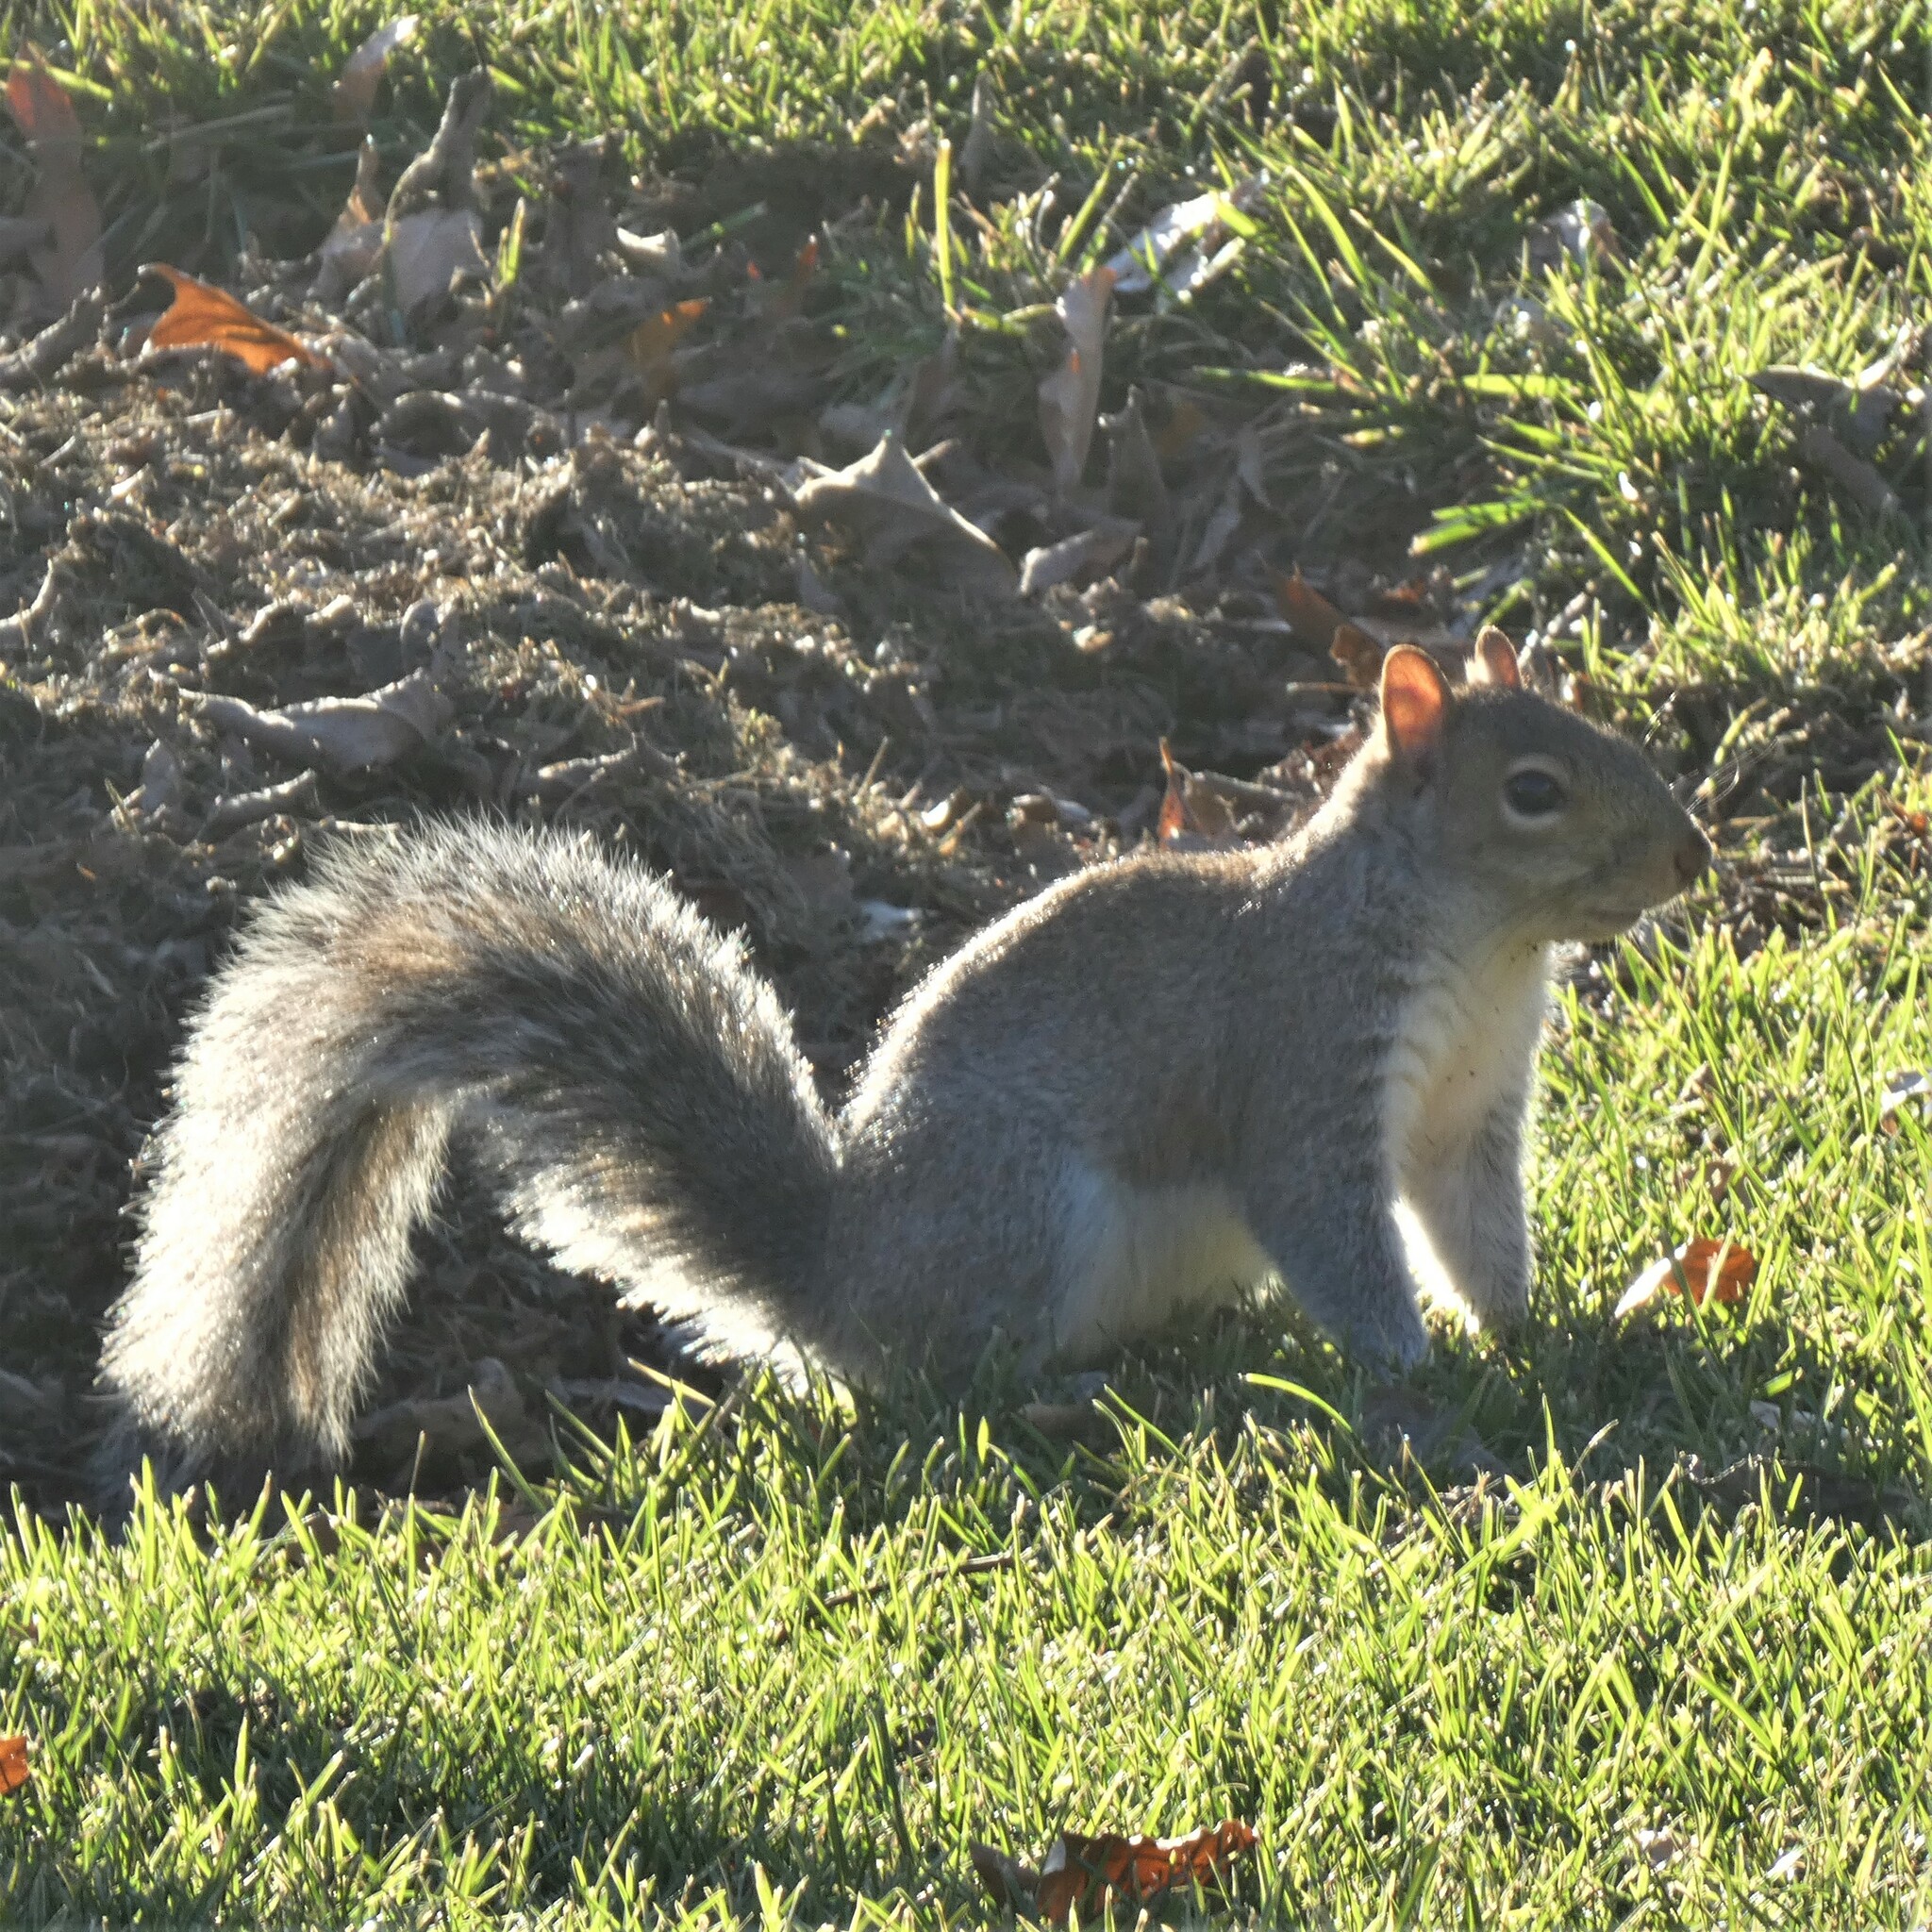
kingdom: Animalia
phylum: Chordata
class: Mammalia
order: Rodentia
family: Sciuridae
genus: Sciurus
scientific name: Sciurus carolinensis
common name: Eastern gray squirrel
